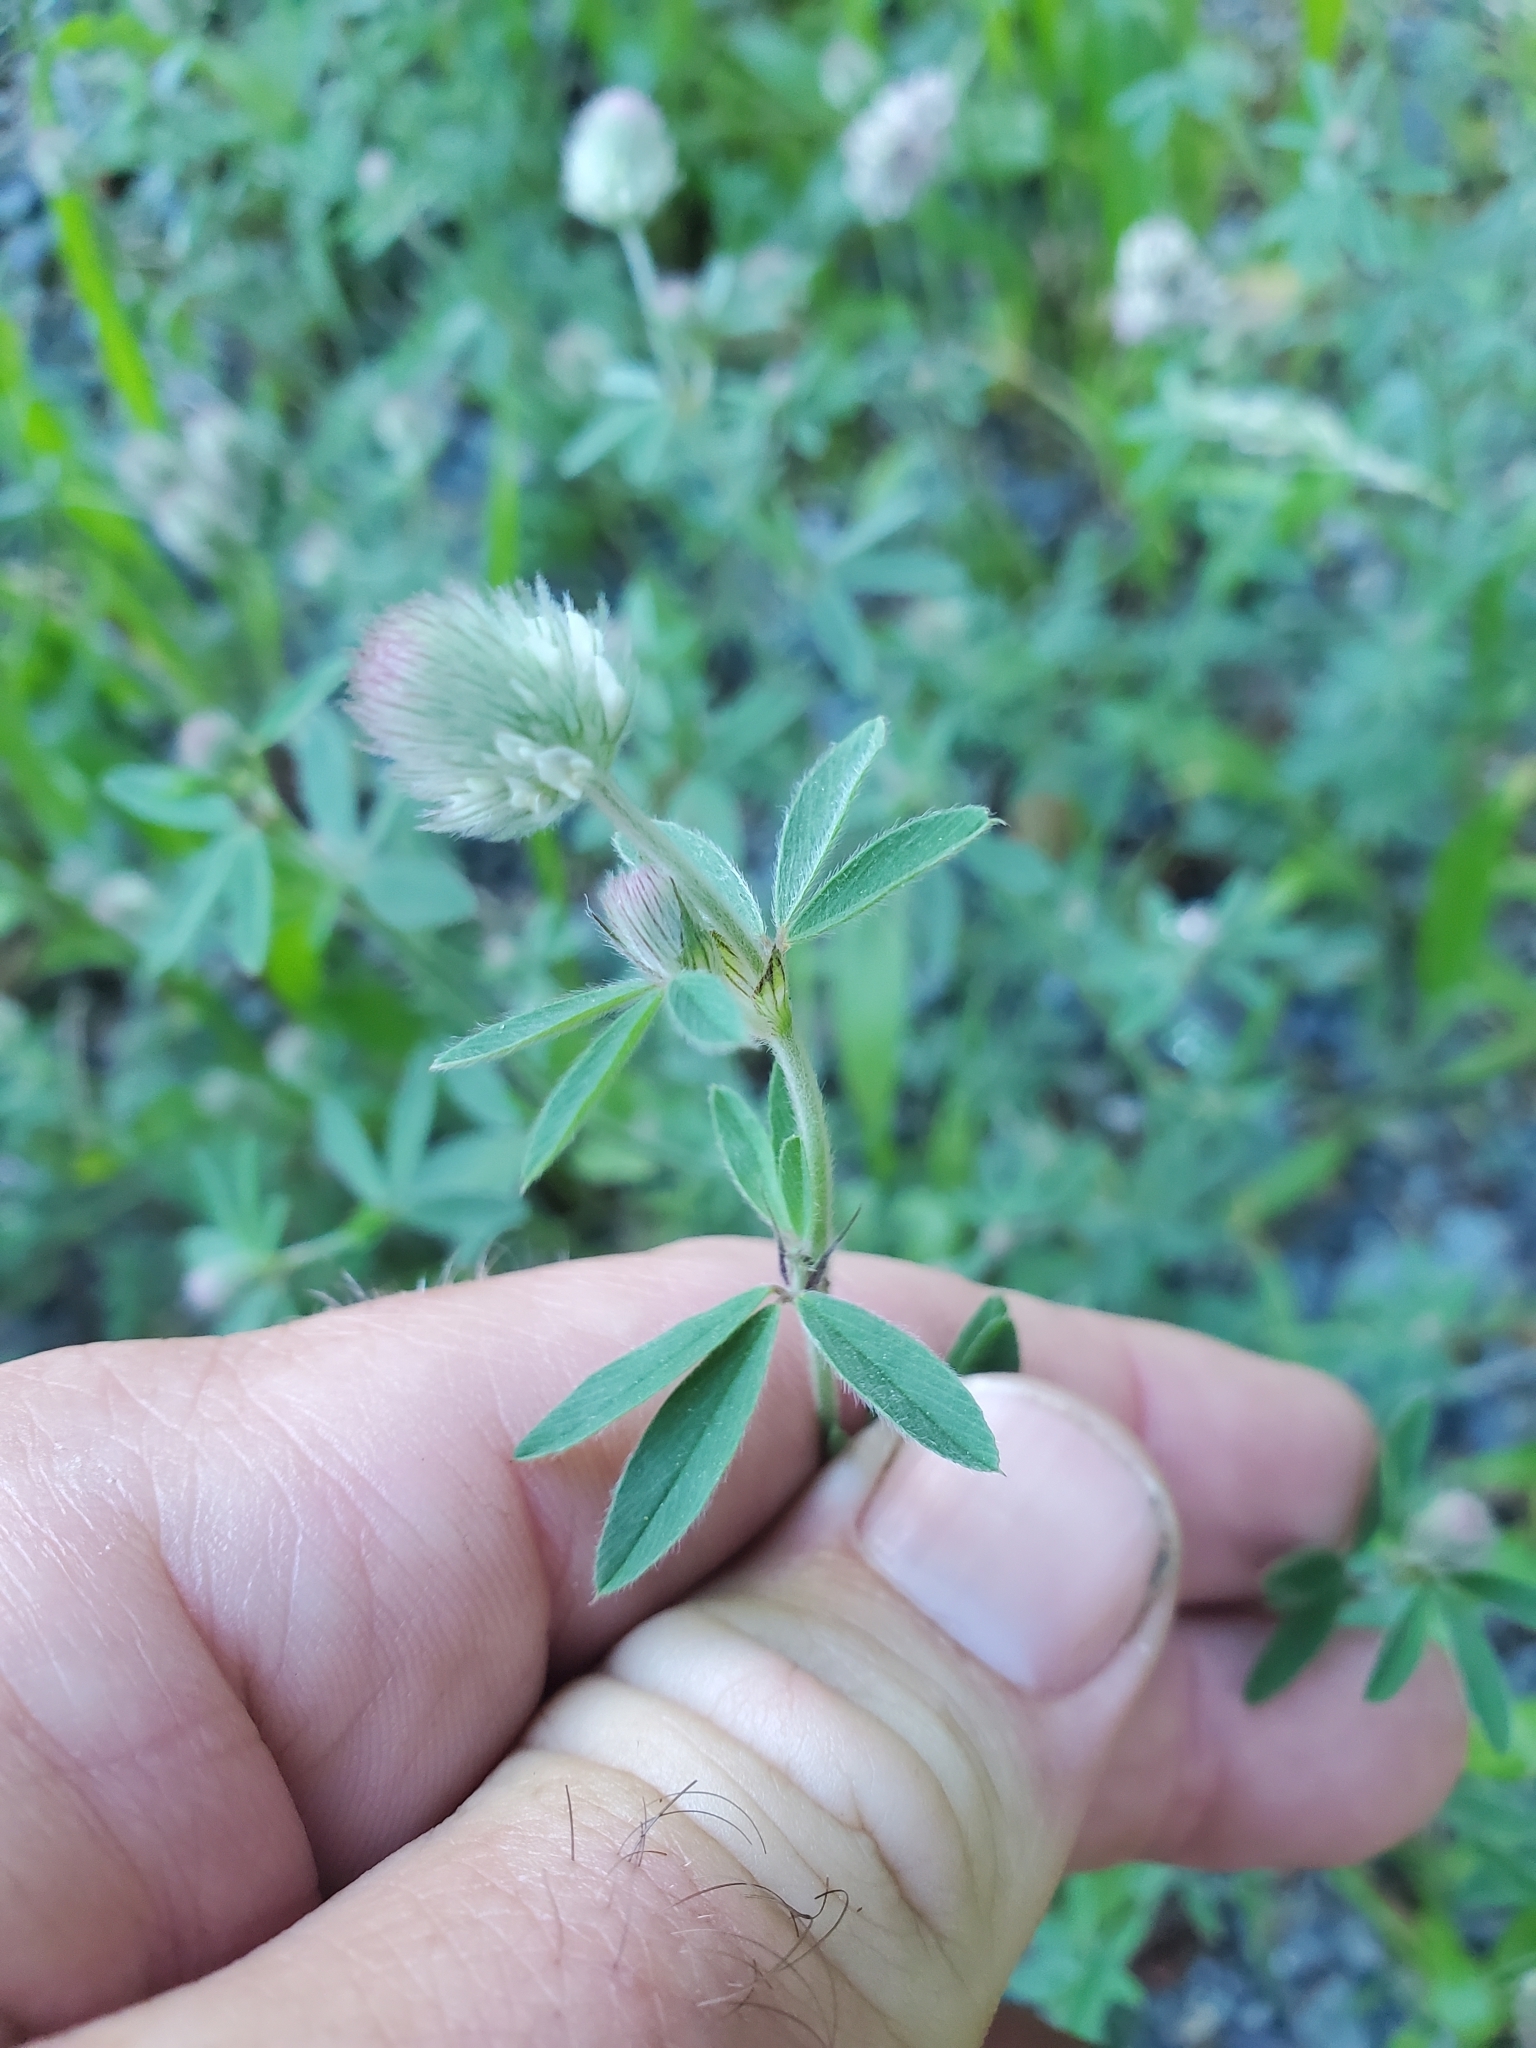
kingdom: Plantae
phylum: Tracheophyta
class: Magnoliopsida
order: Fabales
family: Fabaceae
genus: Trifolium
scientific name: Trifolium arvense
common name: Hare's-foot clover
